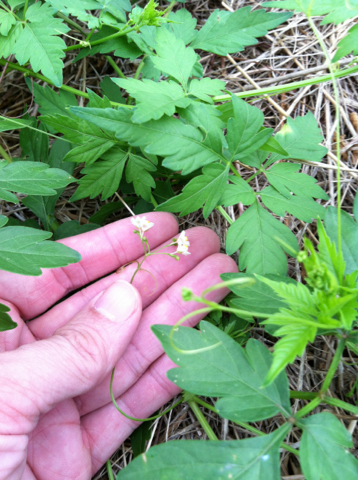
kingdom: Plantae
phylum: Tracheophyta
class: Magnoliopsida
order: Sapindales
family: Sapindaceae
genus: Cardiospermum
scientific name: Cardiospermum halicacabum
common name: Balloon vine
